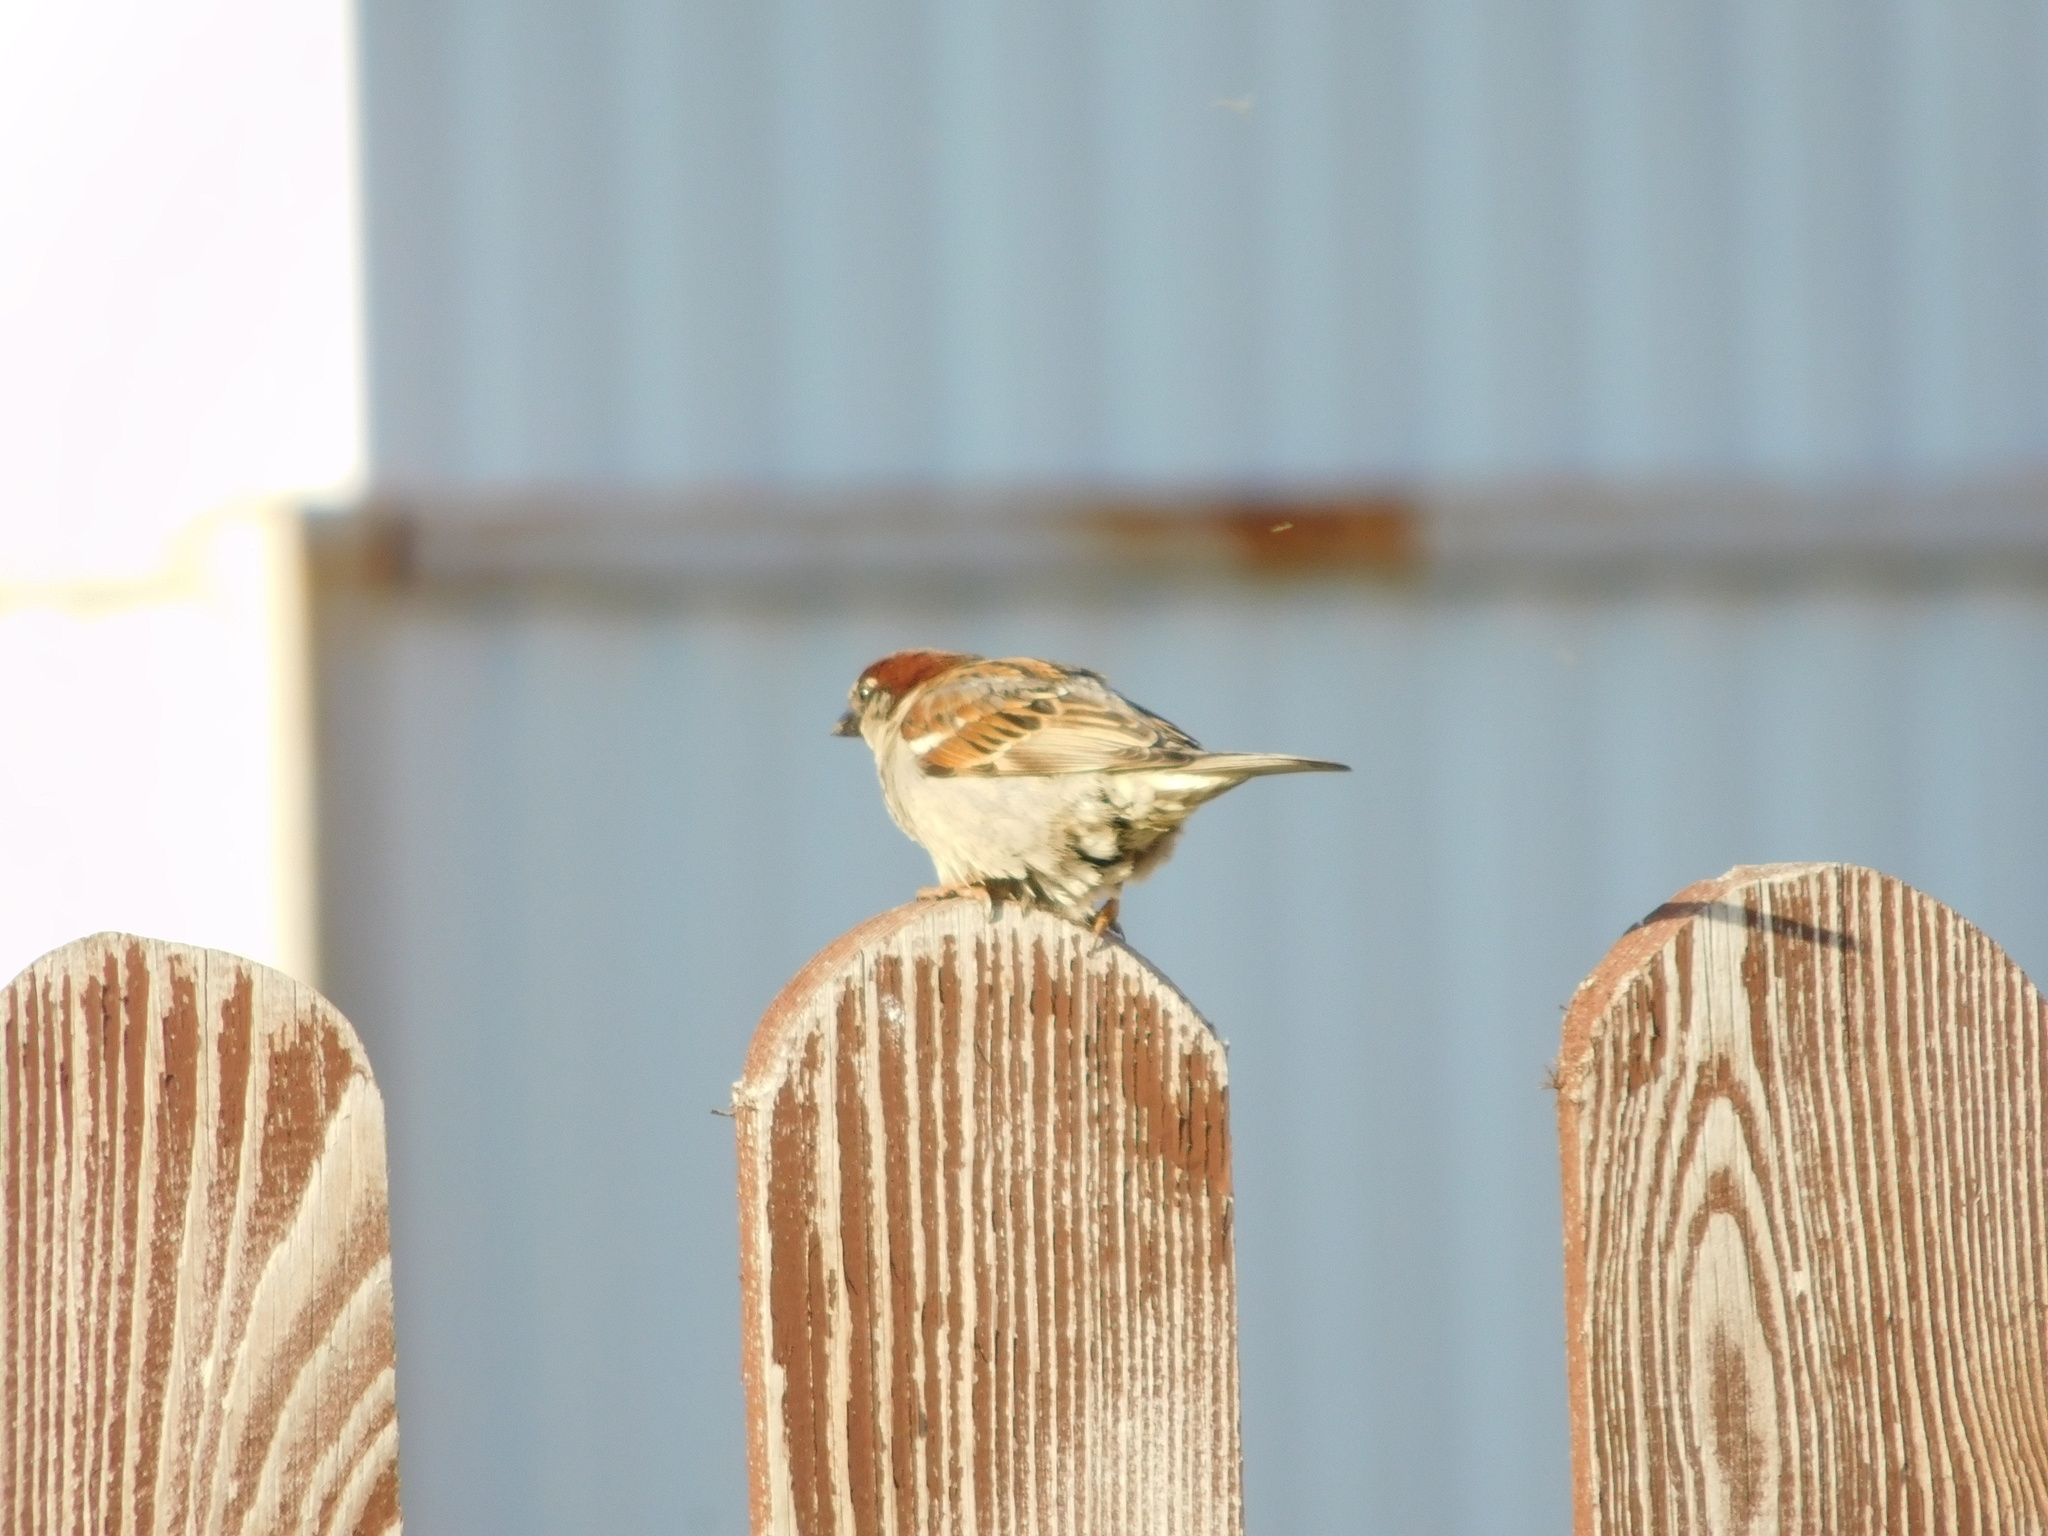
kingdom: Animalia
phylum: Chordata
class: Aves
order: Passeriformes
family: Passeridae
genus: Passer
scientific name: Passer domesticus
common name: House sparrow
